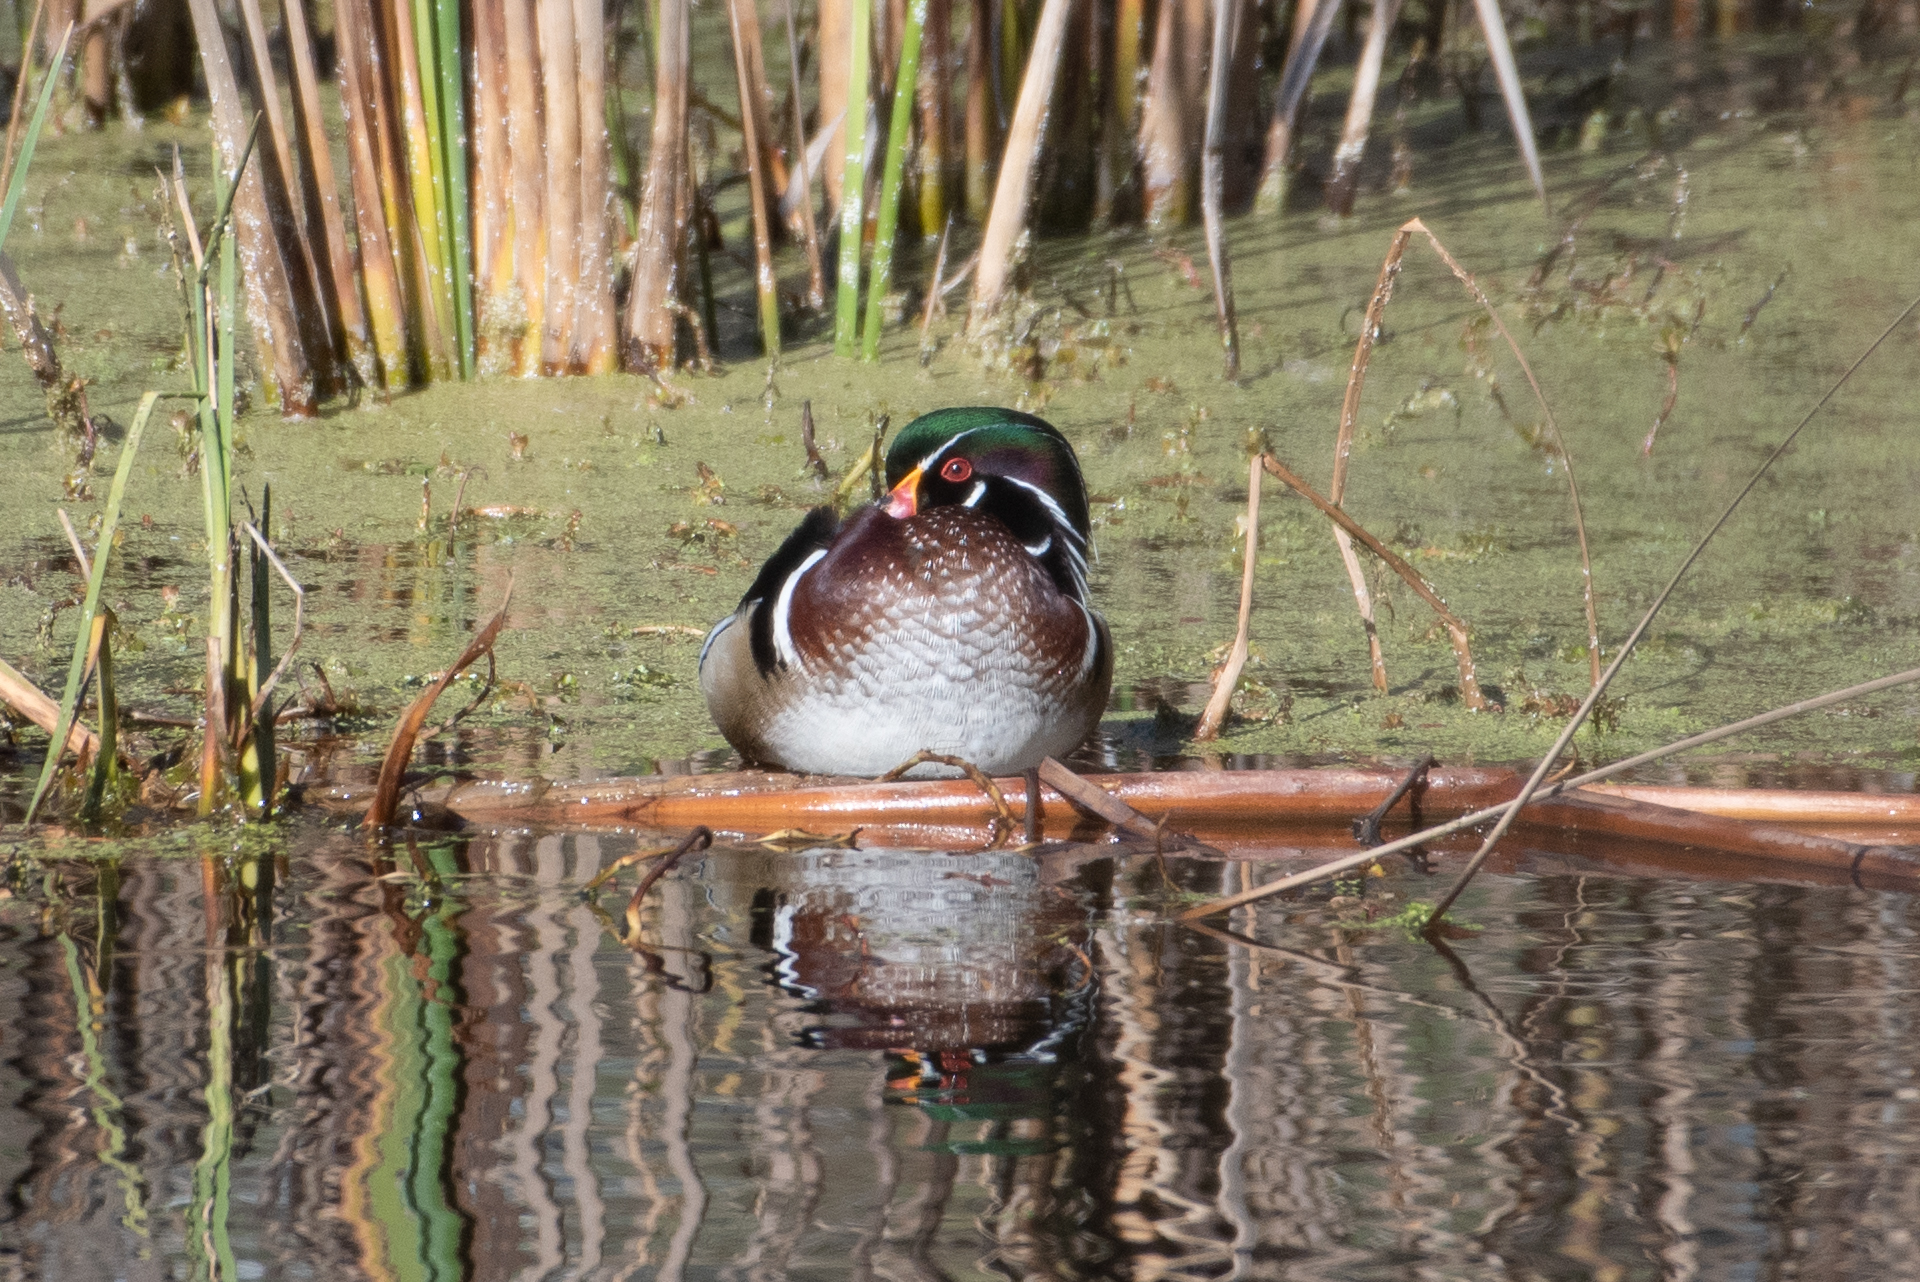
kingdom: Animalia
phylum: Chordata
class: Aves
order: Anseriformes
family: Anatidae
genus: Aix
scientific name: Aix sponsa
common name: Wood duck
